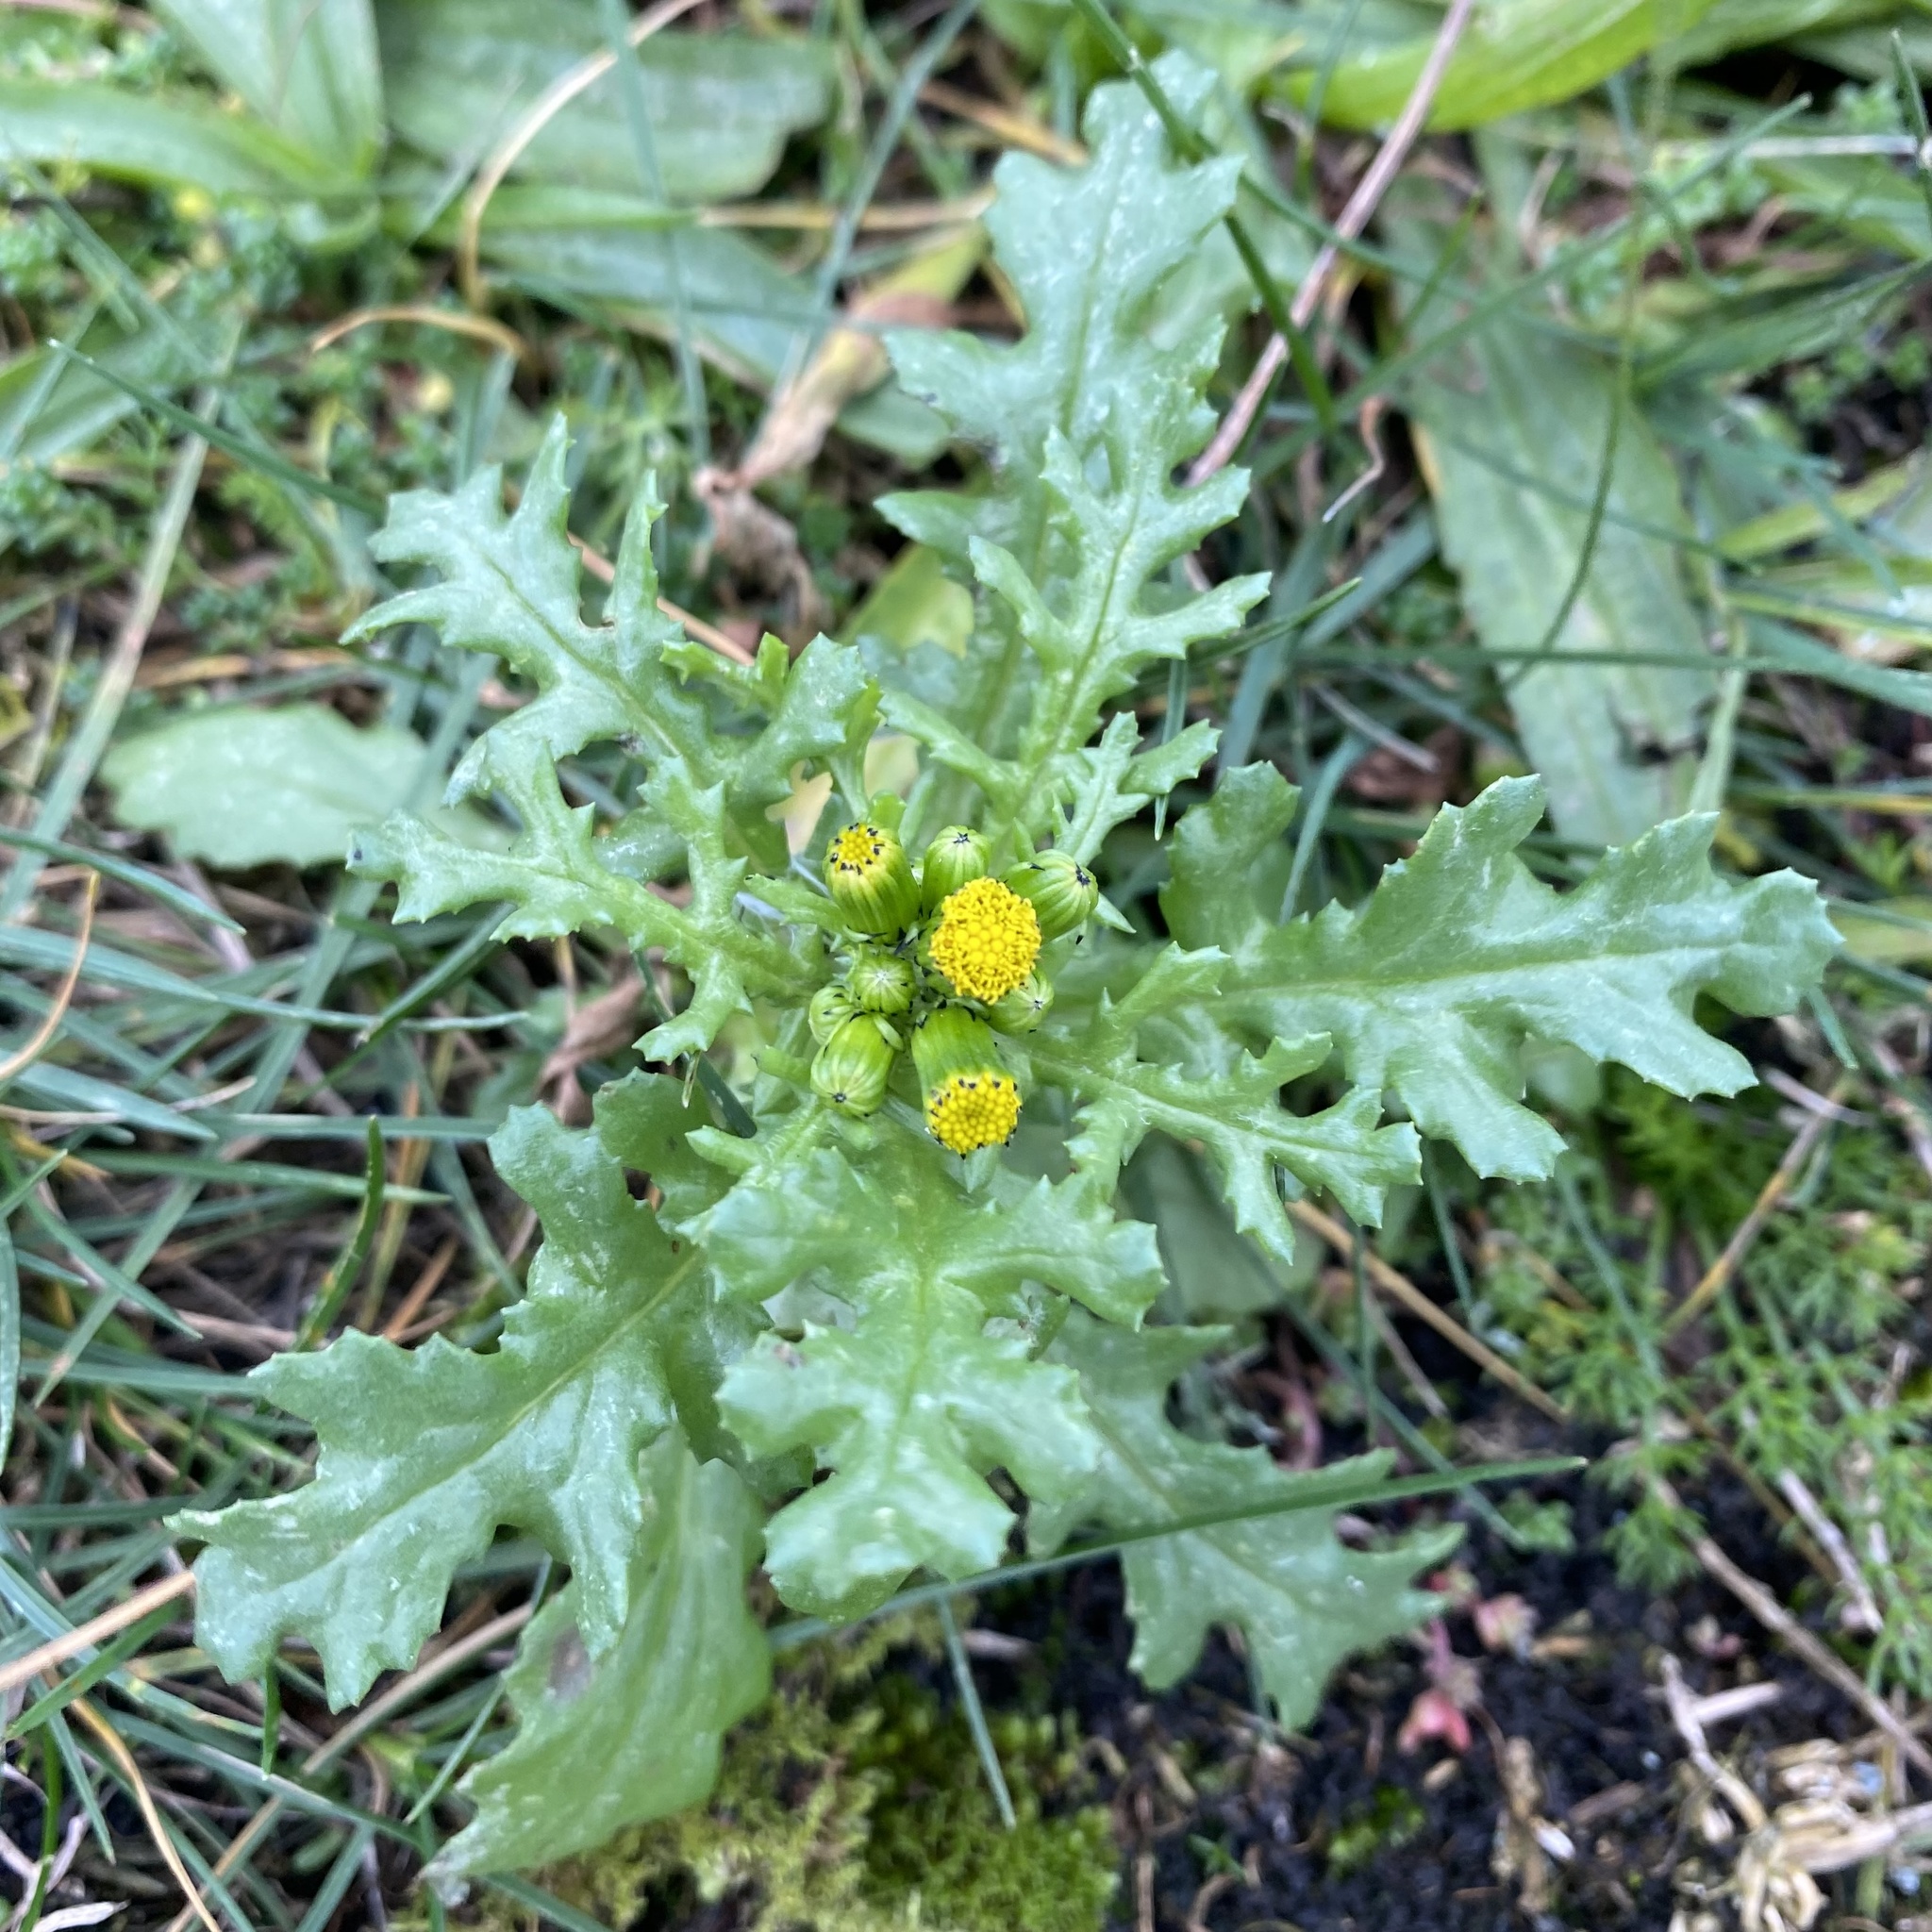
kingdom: Plantae
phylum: Tracheophyta
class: Magnoliopsida
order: Asterales
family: Asteraceae
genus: Senecio
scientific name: Senecio vulgaris
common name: Old-man-in-the-spring
